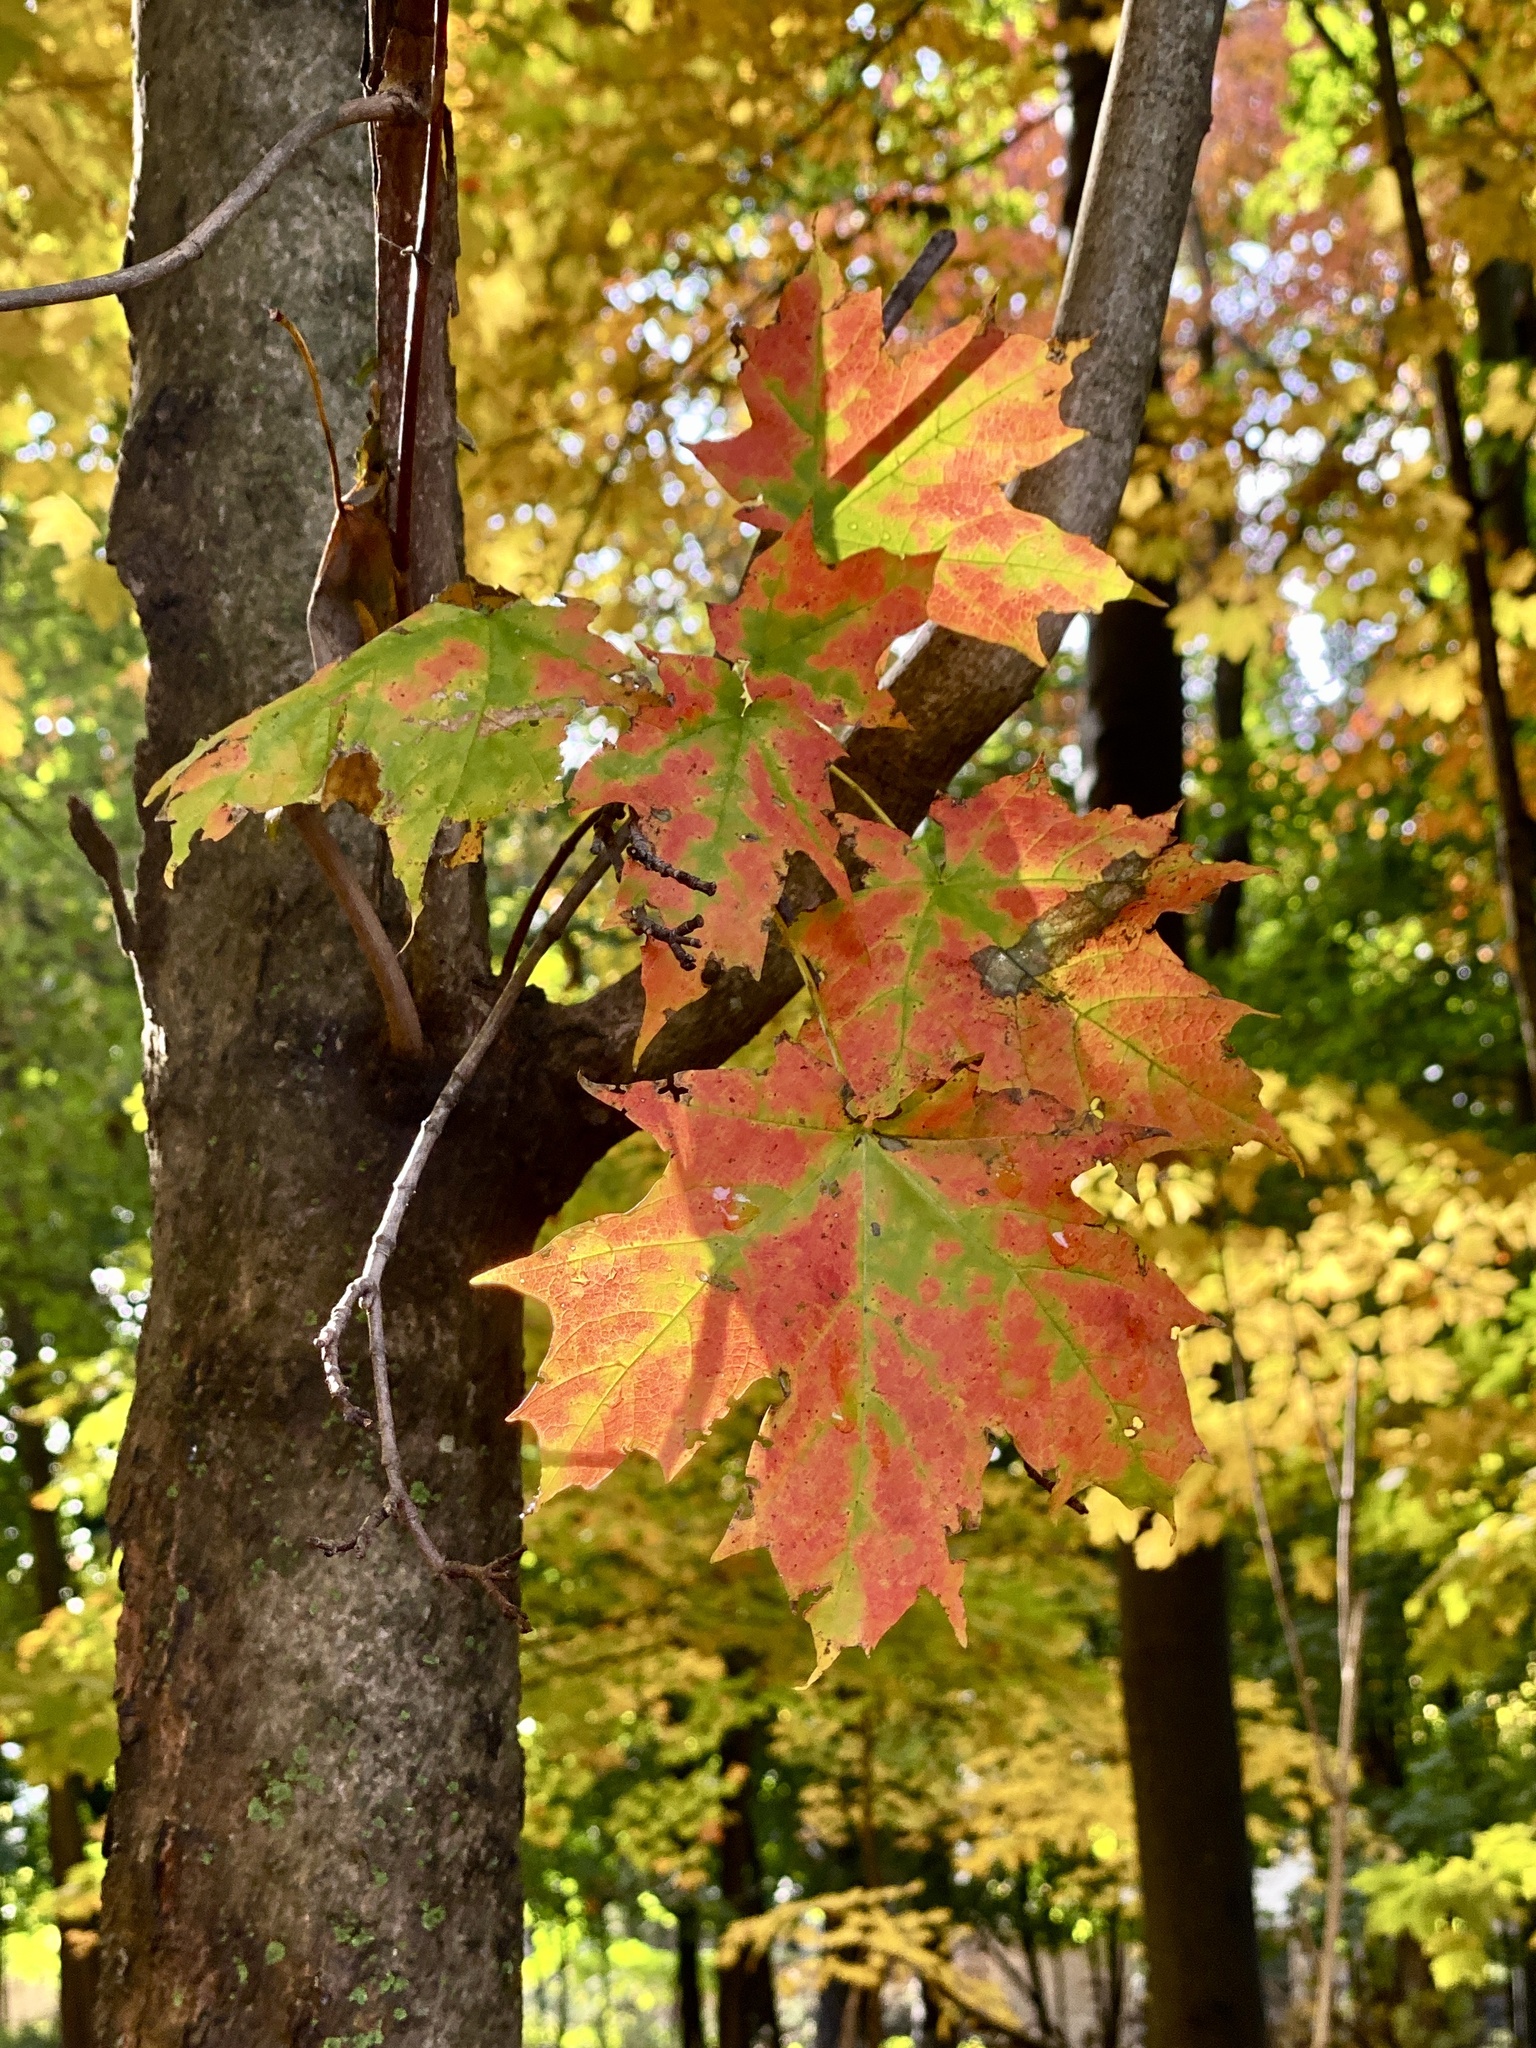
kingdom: Plantae
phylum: Tracheophyta
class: Magnoliopsida
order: Sapindales
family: Sapindaceae
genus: Acer
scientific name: Acer saccharum
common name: Sugar maple
